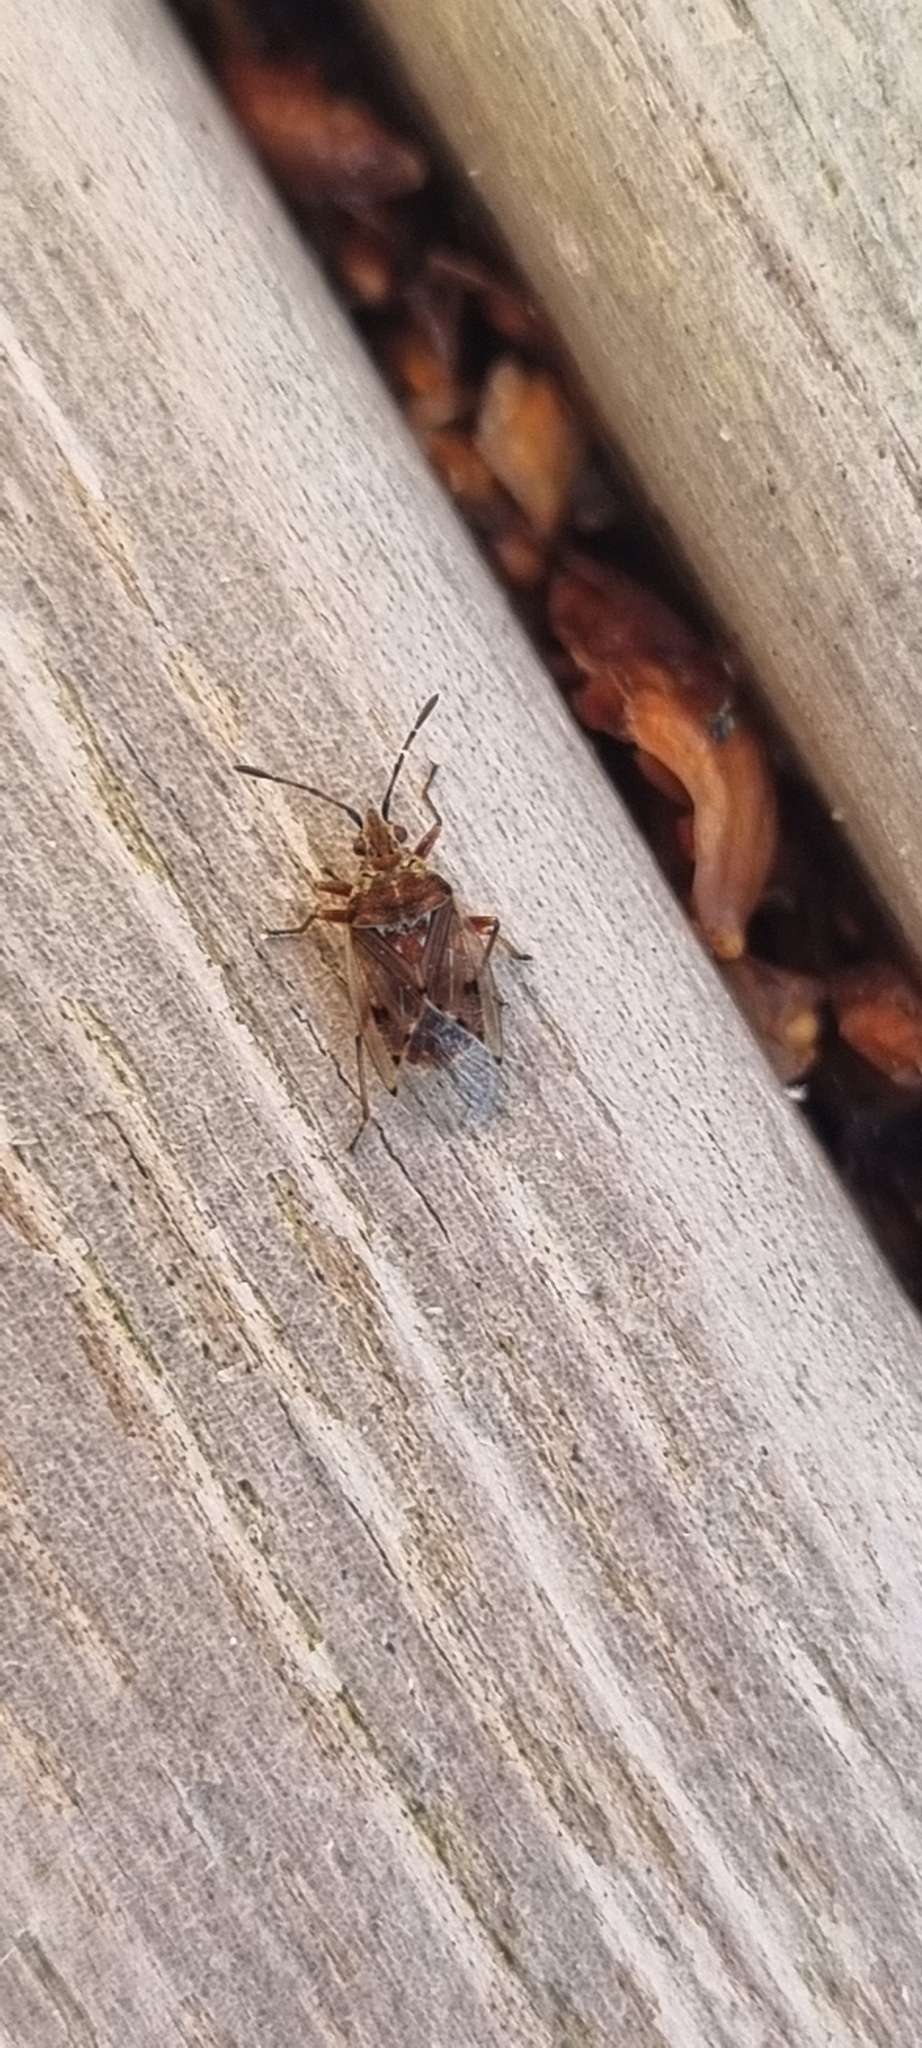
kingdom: Animalia
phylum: Arthropoda
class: Insecta
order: Hemiptera
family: Lygaeidae
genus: Kleidocerys
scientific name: Kleidocerys resedae
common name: Birch catkin bug
